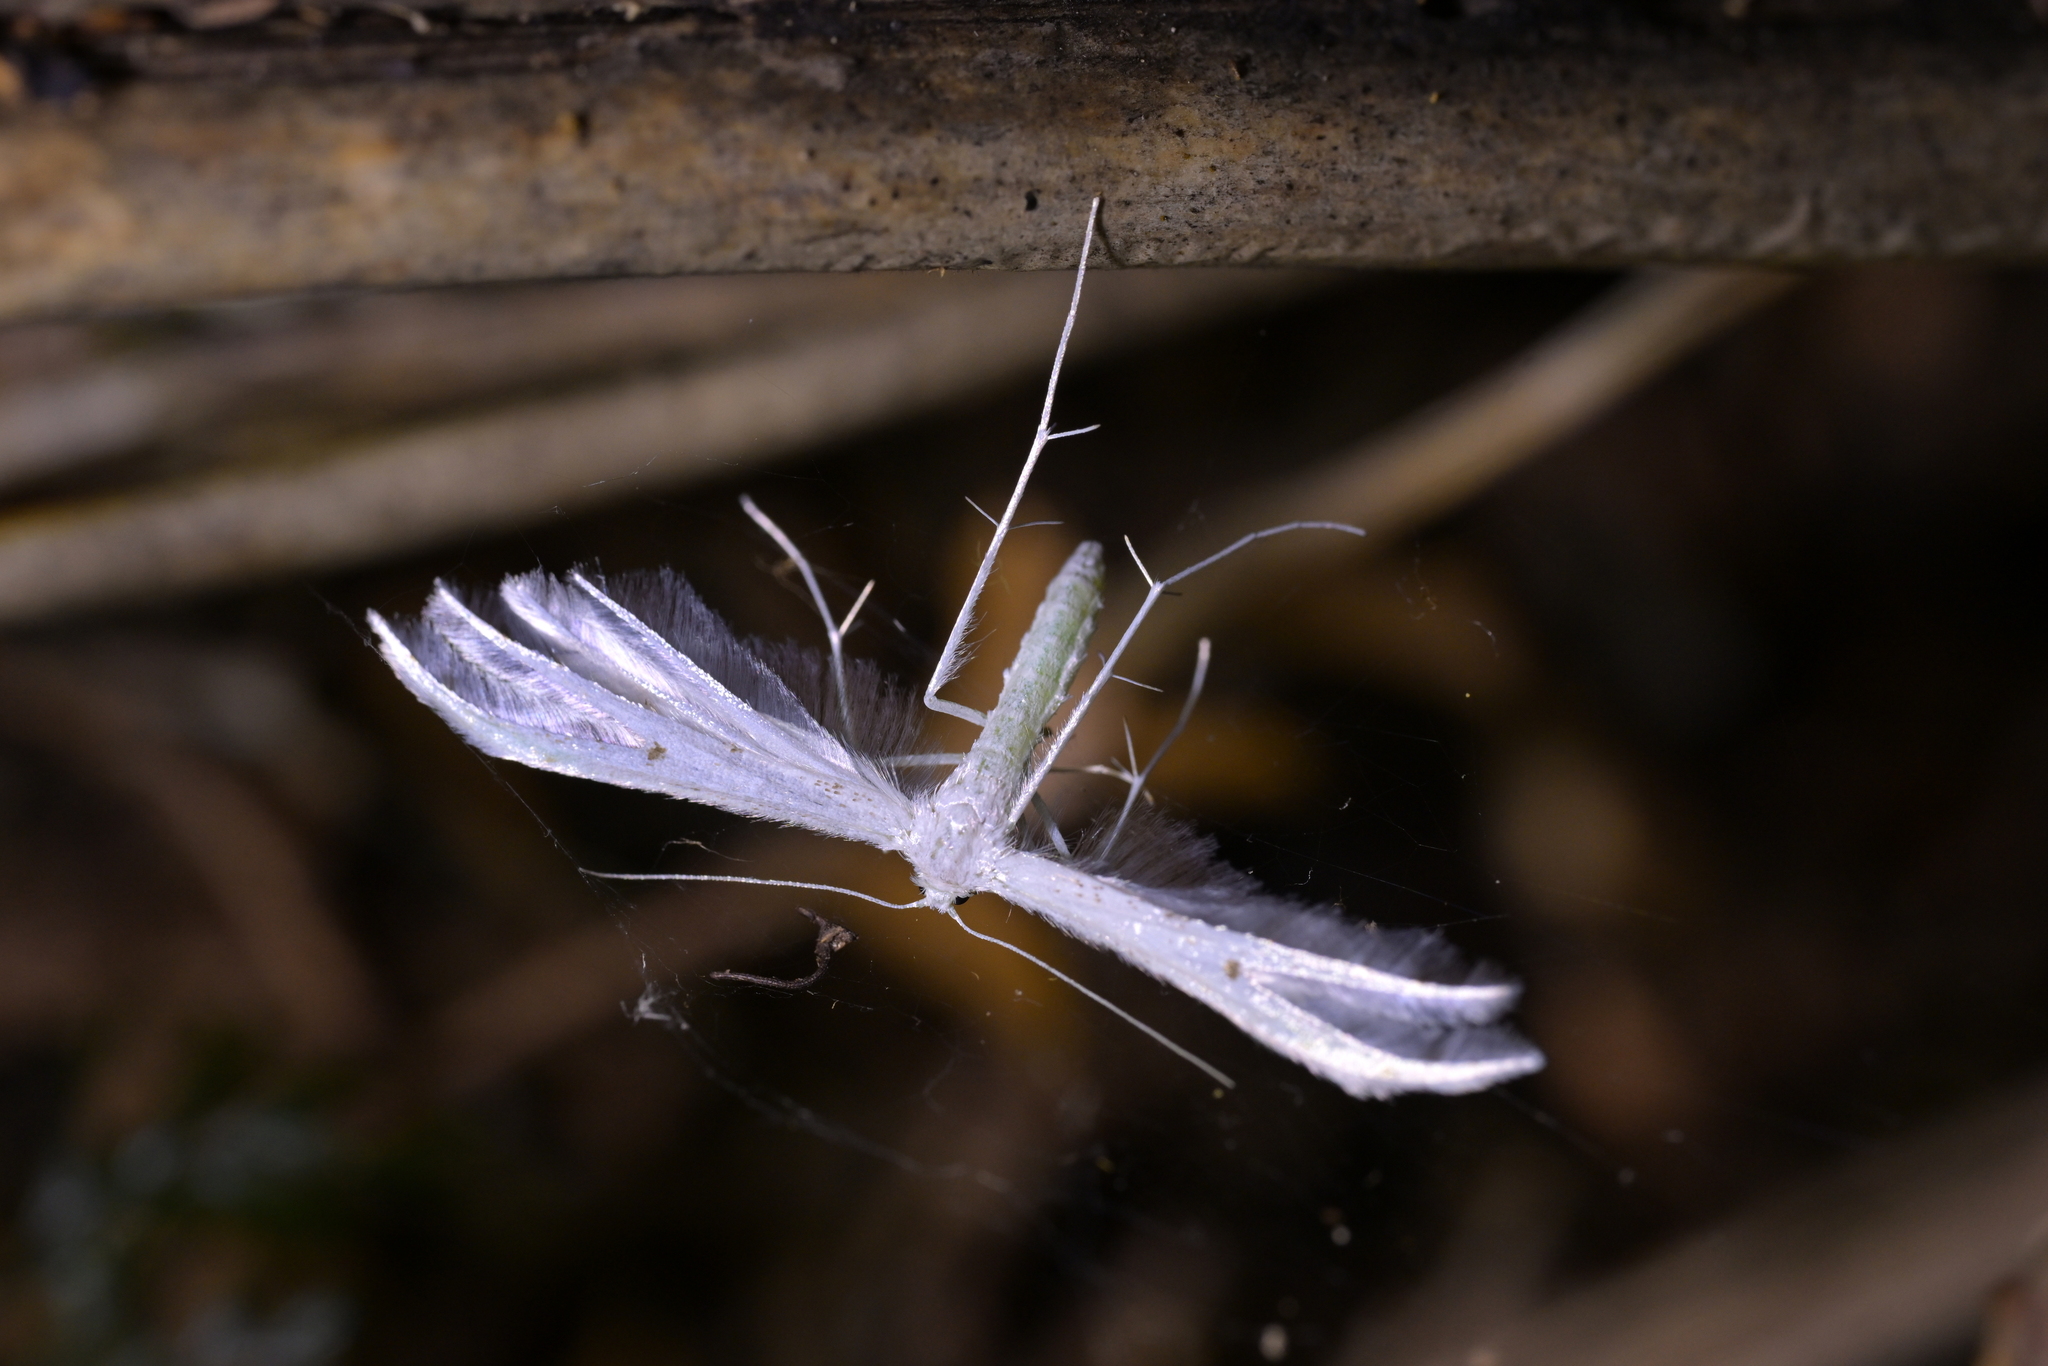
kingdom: Animalia
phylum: Arthropoda
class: Insecta
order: Lepidoptera
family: Pterophoridae
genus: Pterophorus
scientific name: Pterophorus monospilalis
